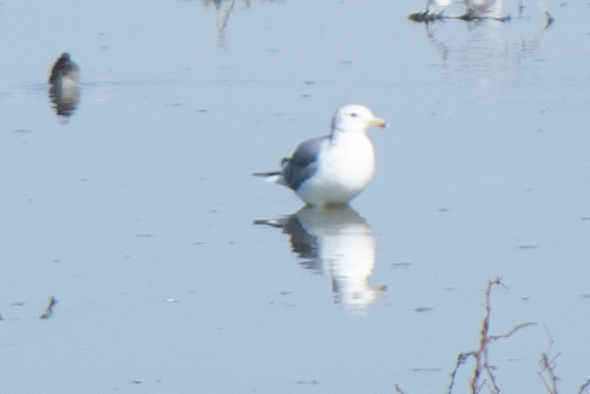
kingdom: Animalia
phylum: Chordata
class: Aves
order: Charadriiformes
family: Laridae
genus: Larus
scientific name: Larus californicus
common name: California gull
